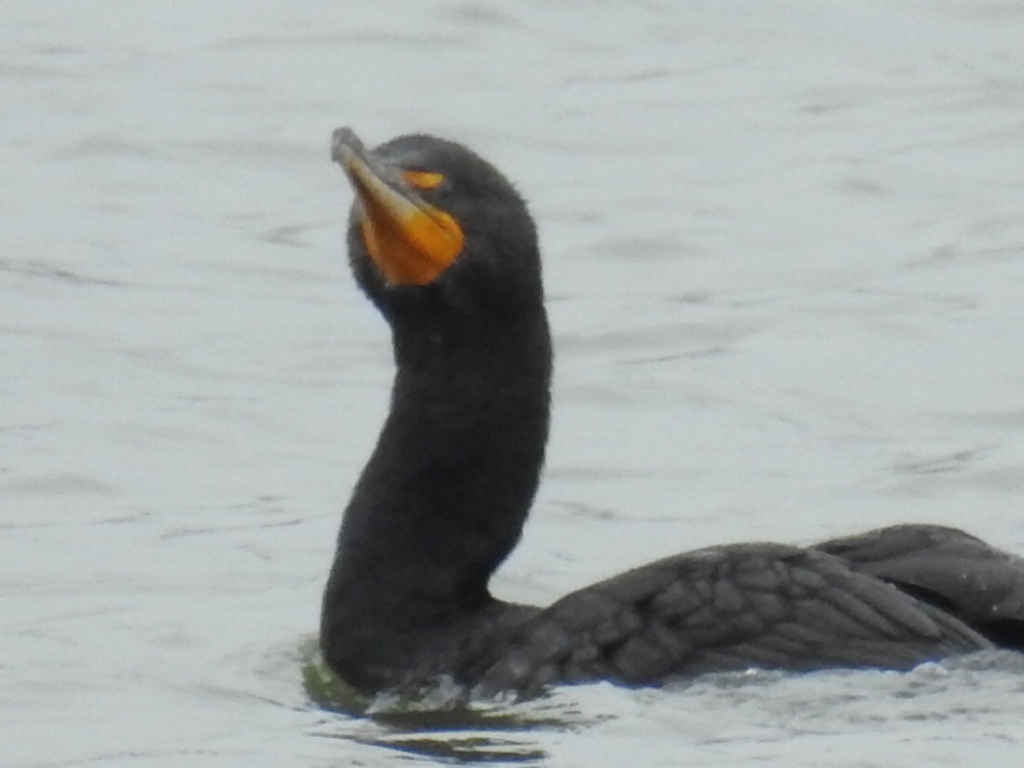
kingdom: Animalia
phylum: Chordata
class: Aves
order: Suliformes
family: Phalacrocoracidae
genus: Phalacrocorax
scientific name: Phalacrocorax auritus
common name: Double-crested cormorant
